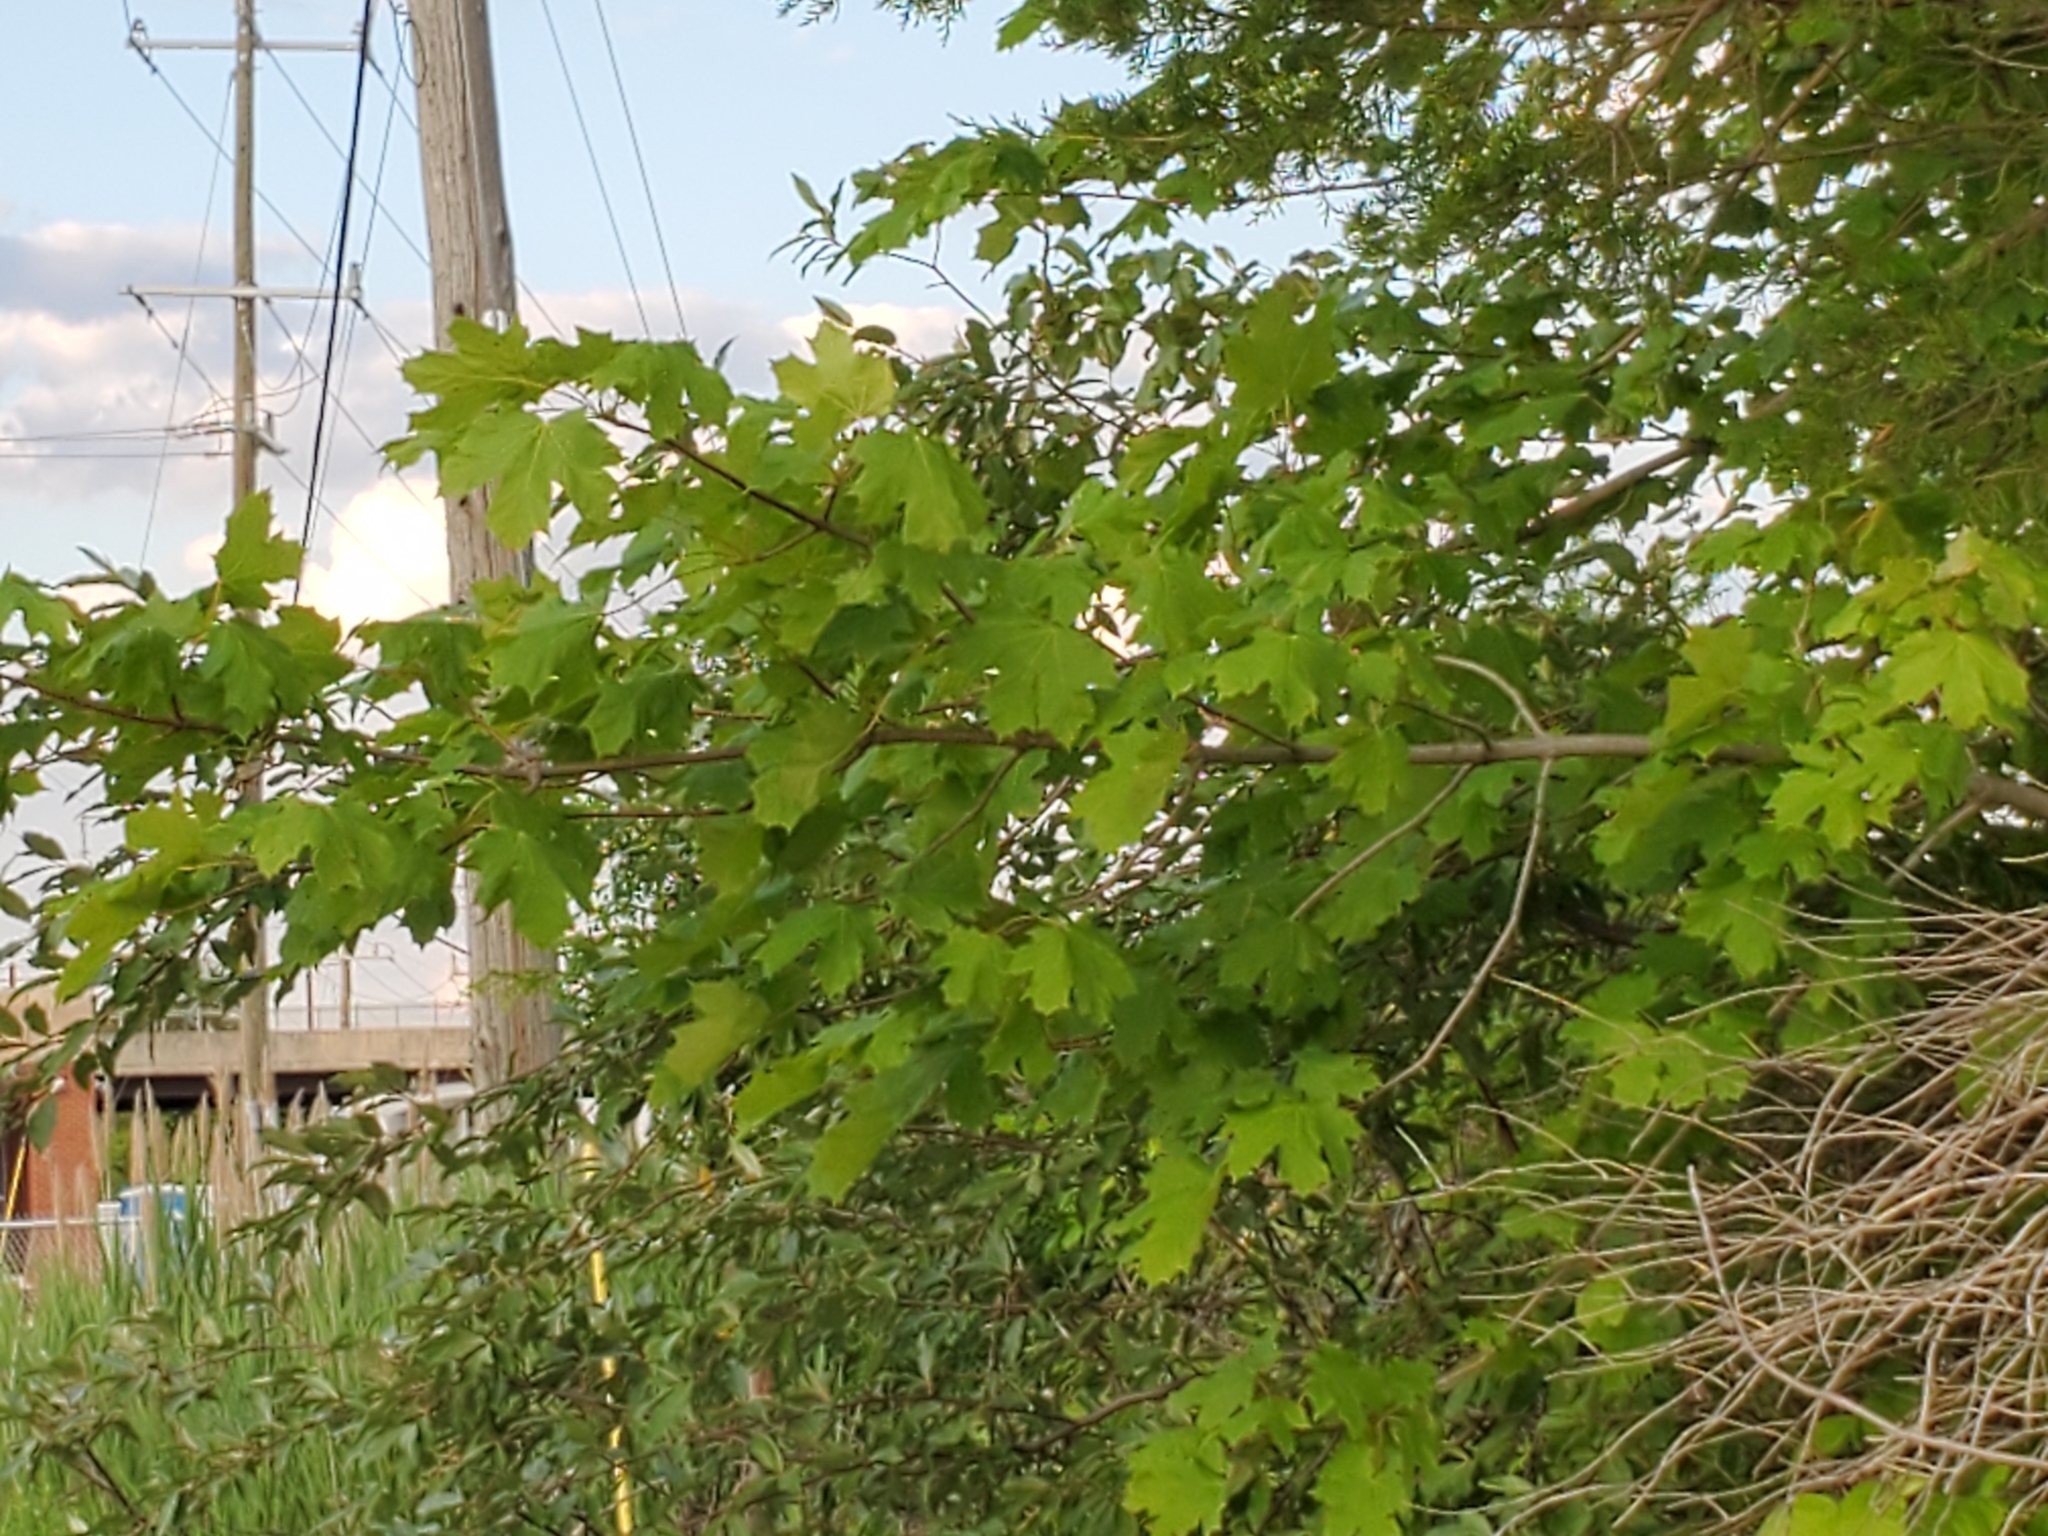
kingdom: Plantae
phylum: Tracheophyta
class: Magnoliopsida
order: Sapindales
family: Sapindaceae
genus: Acer
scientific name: Acer platanoides
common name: Norway maple
